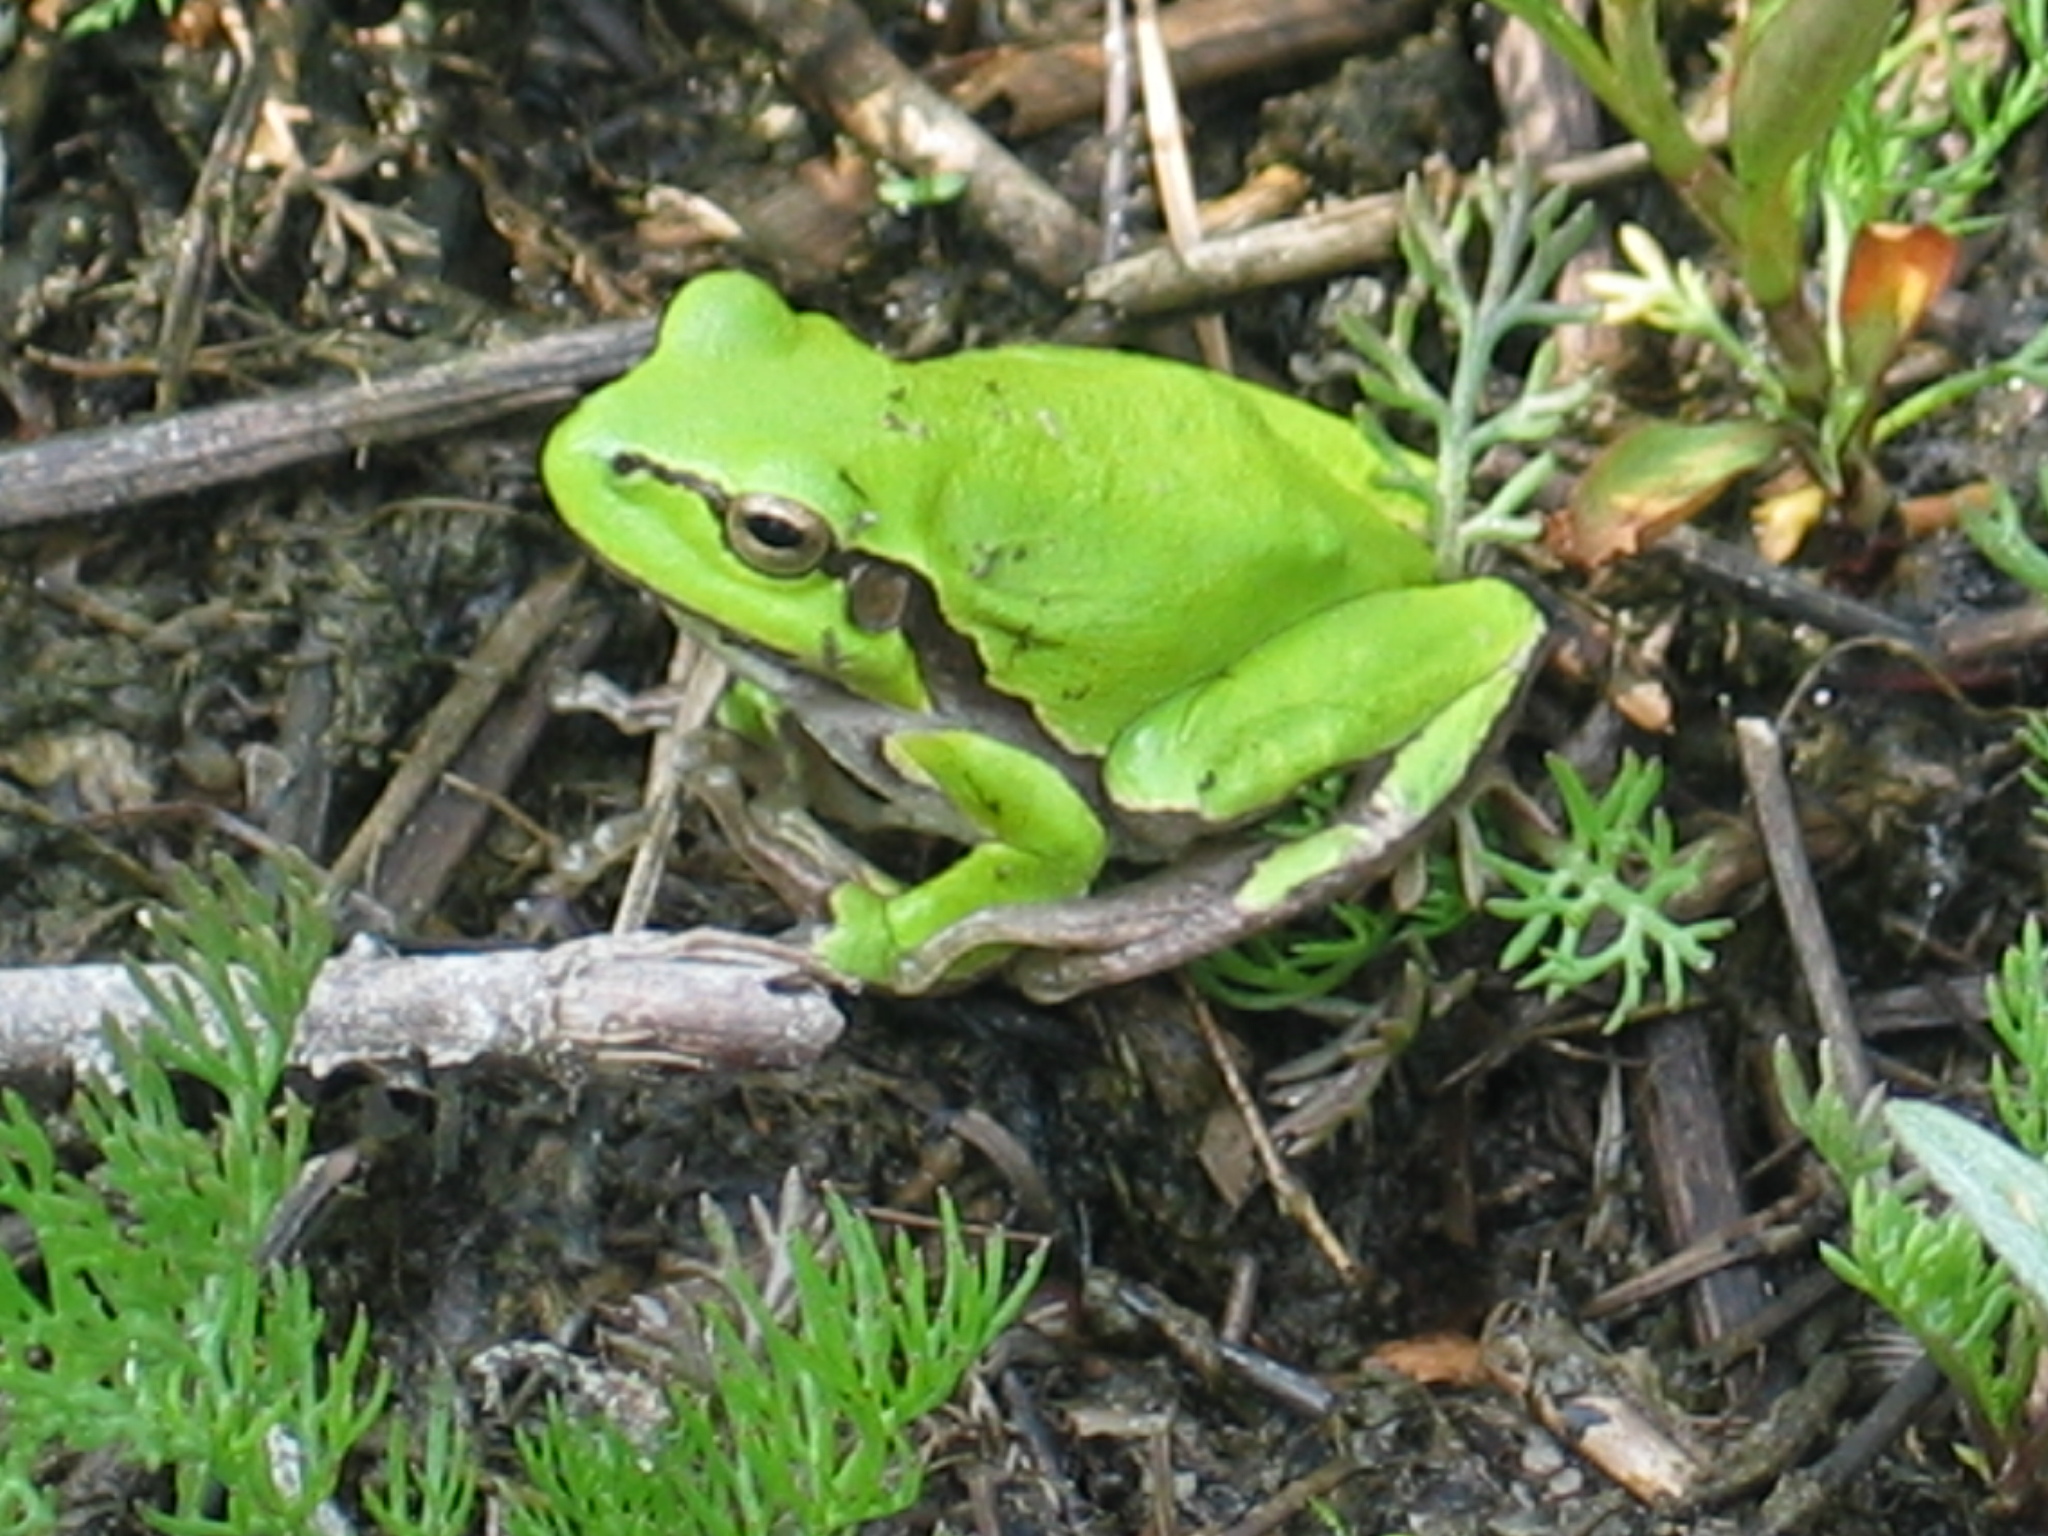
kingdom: Animalia
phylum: Chordata
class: Amphibia
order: Anura
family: Hylidae
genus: Hyla
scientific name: Hyla arborea
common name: Common tree frog
